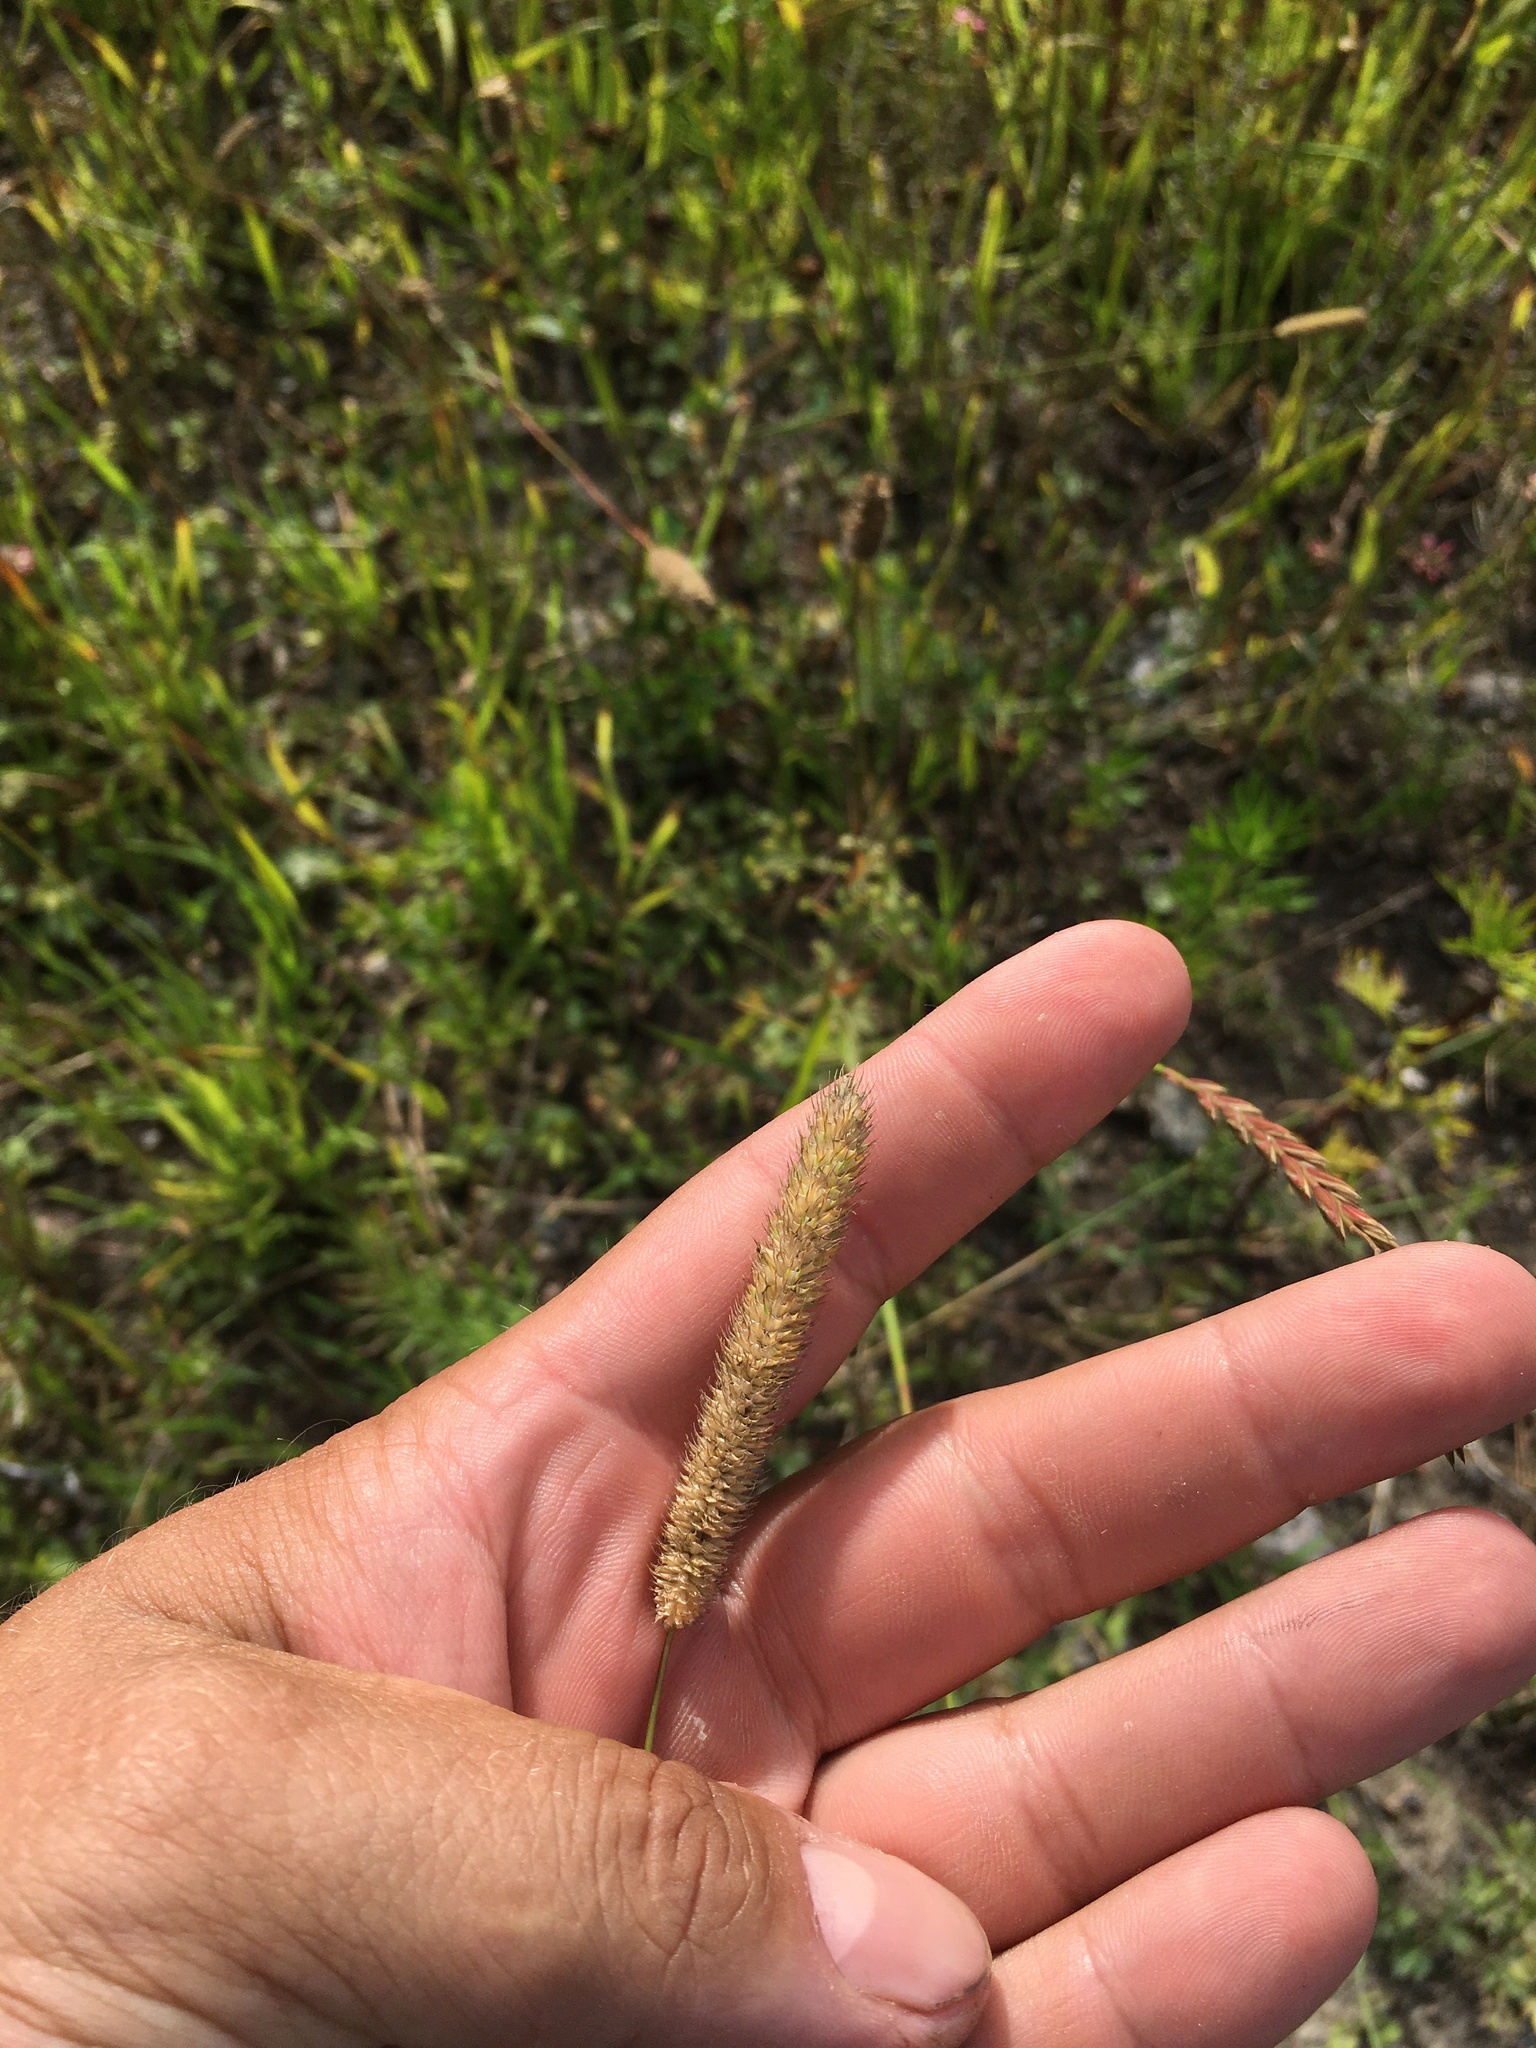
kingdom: Plantae
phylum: Tracheophyta
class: Liliopsida
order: Poales
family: Poaceae
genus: Phleum
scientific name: Phleum pratense
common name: Timothy grass
